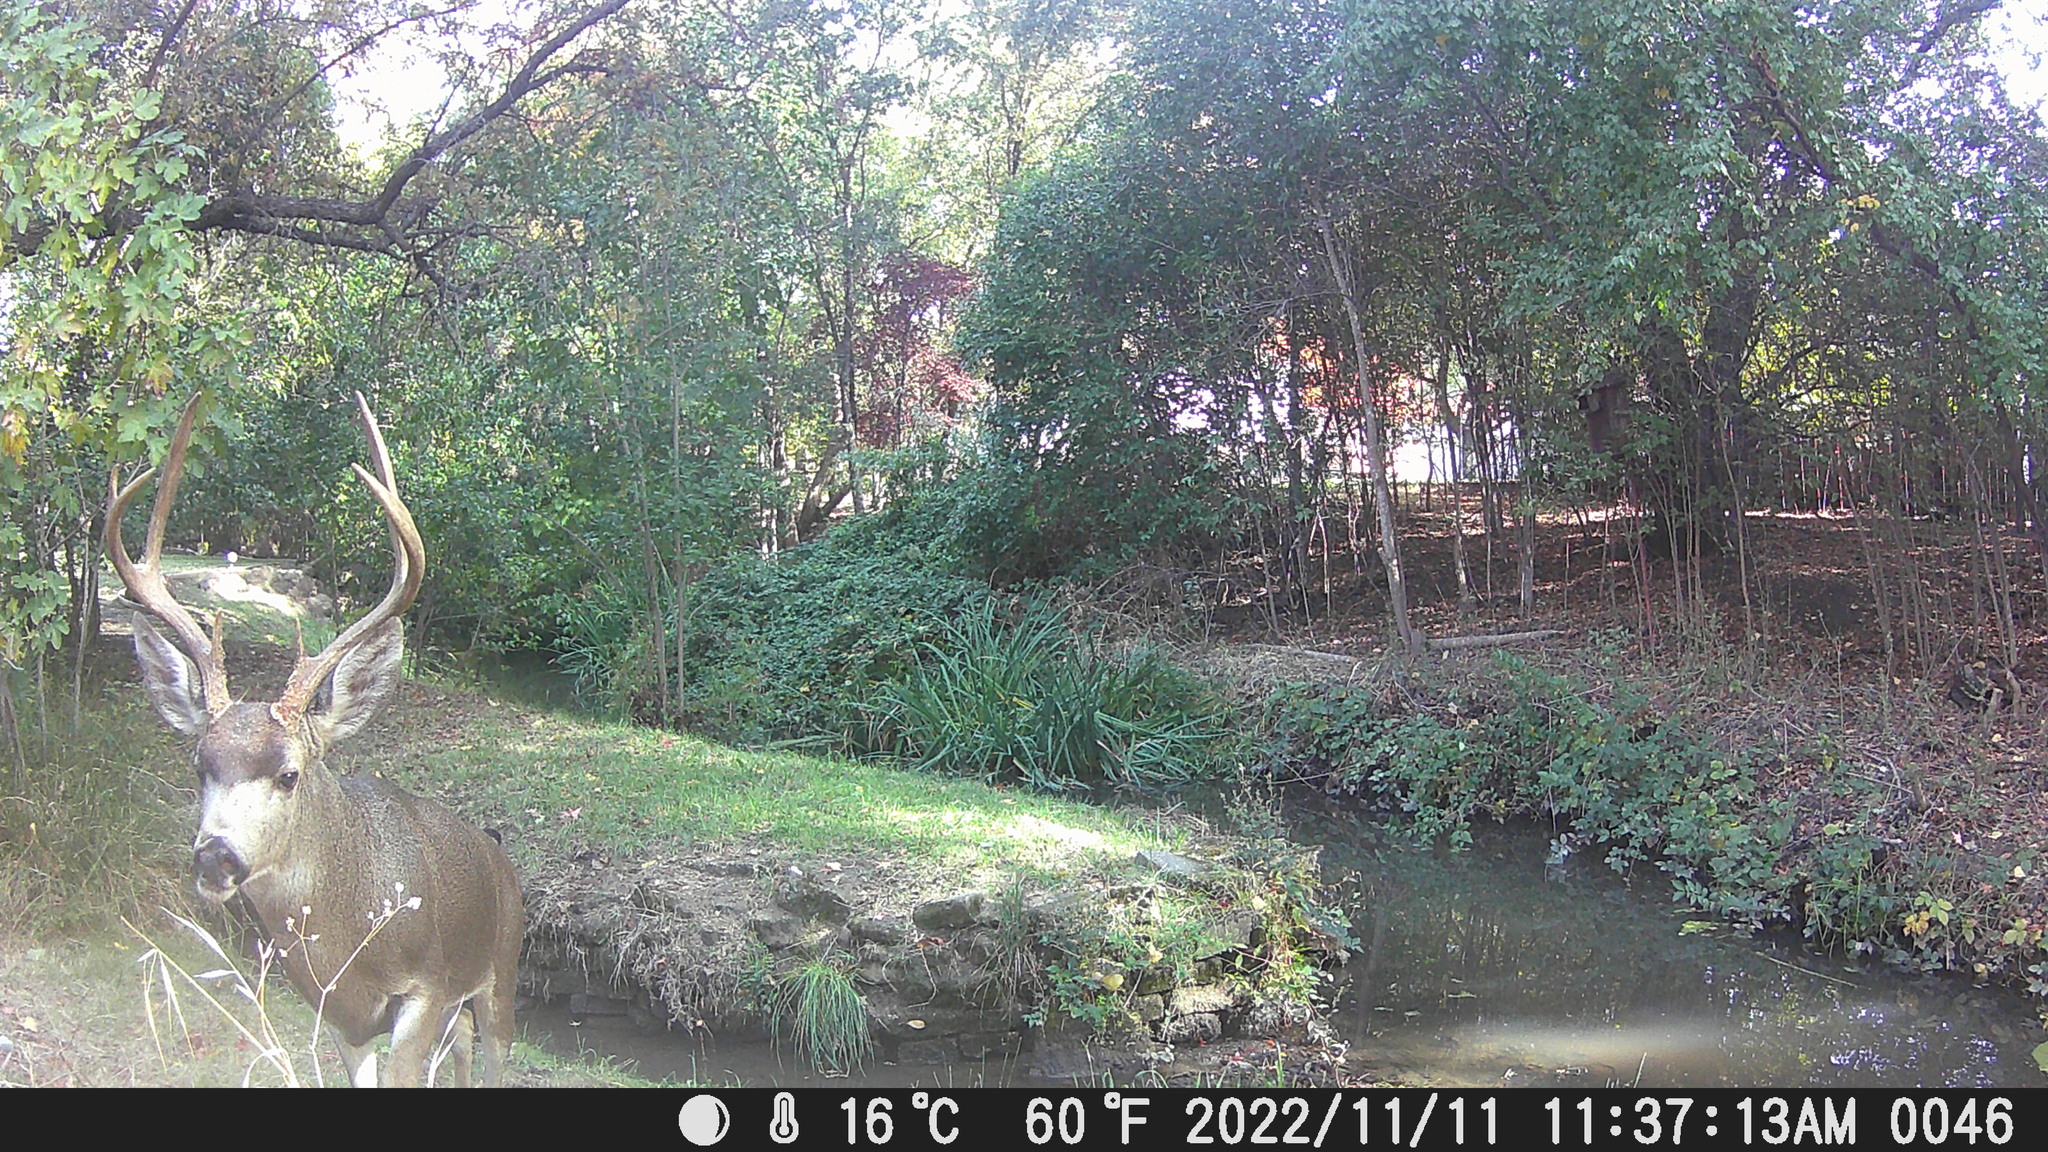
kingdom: Animalia
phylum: Chordata
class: Mammalia
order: Artiodactyla
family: Cervidae
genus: Odocoileus
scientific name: Odocoileus hemionus
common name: Mule deer
